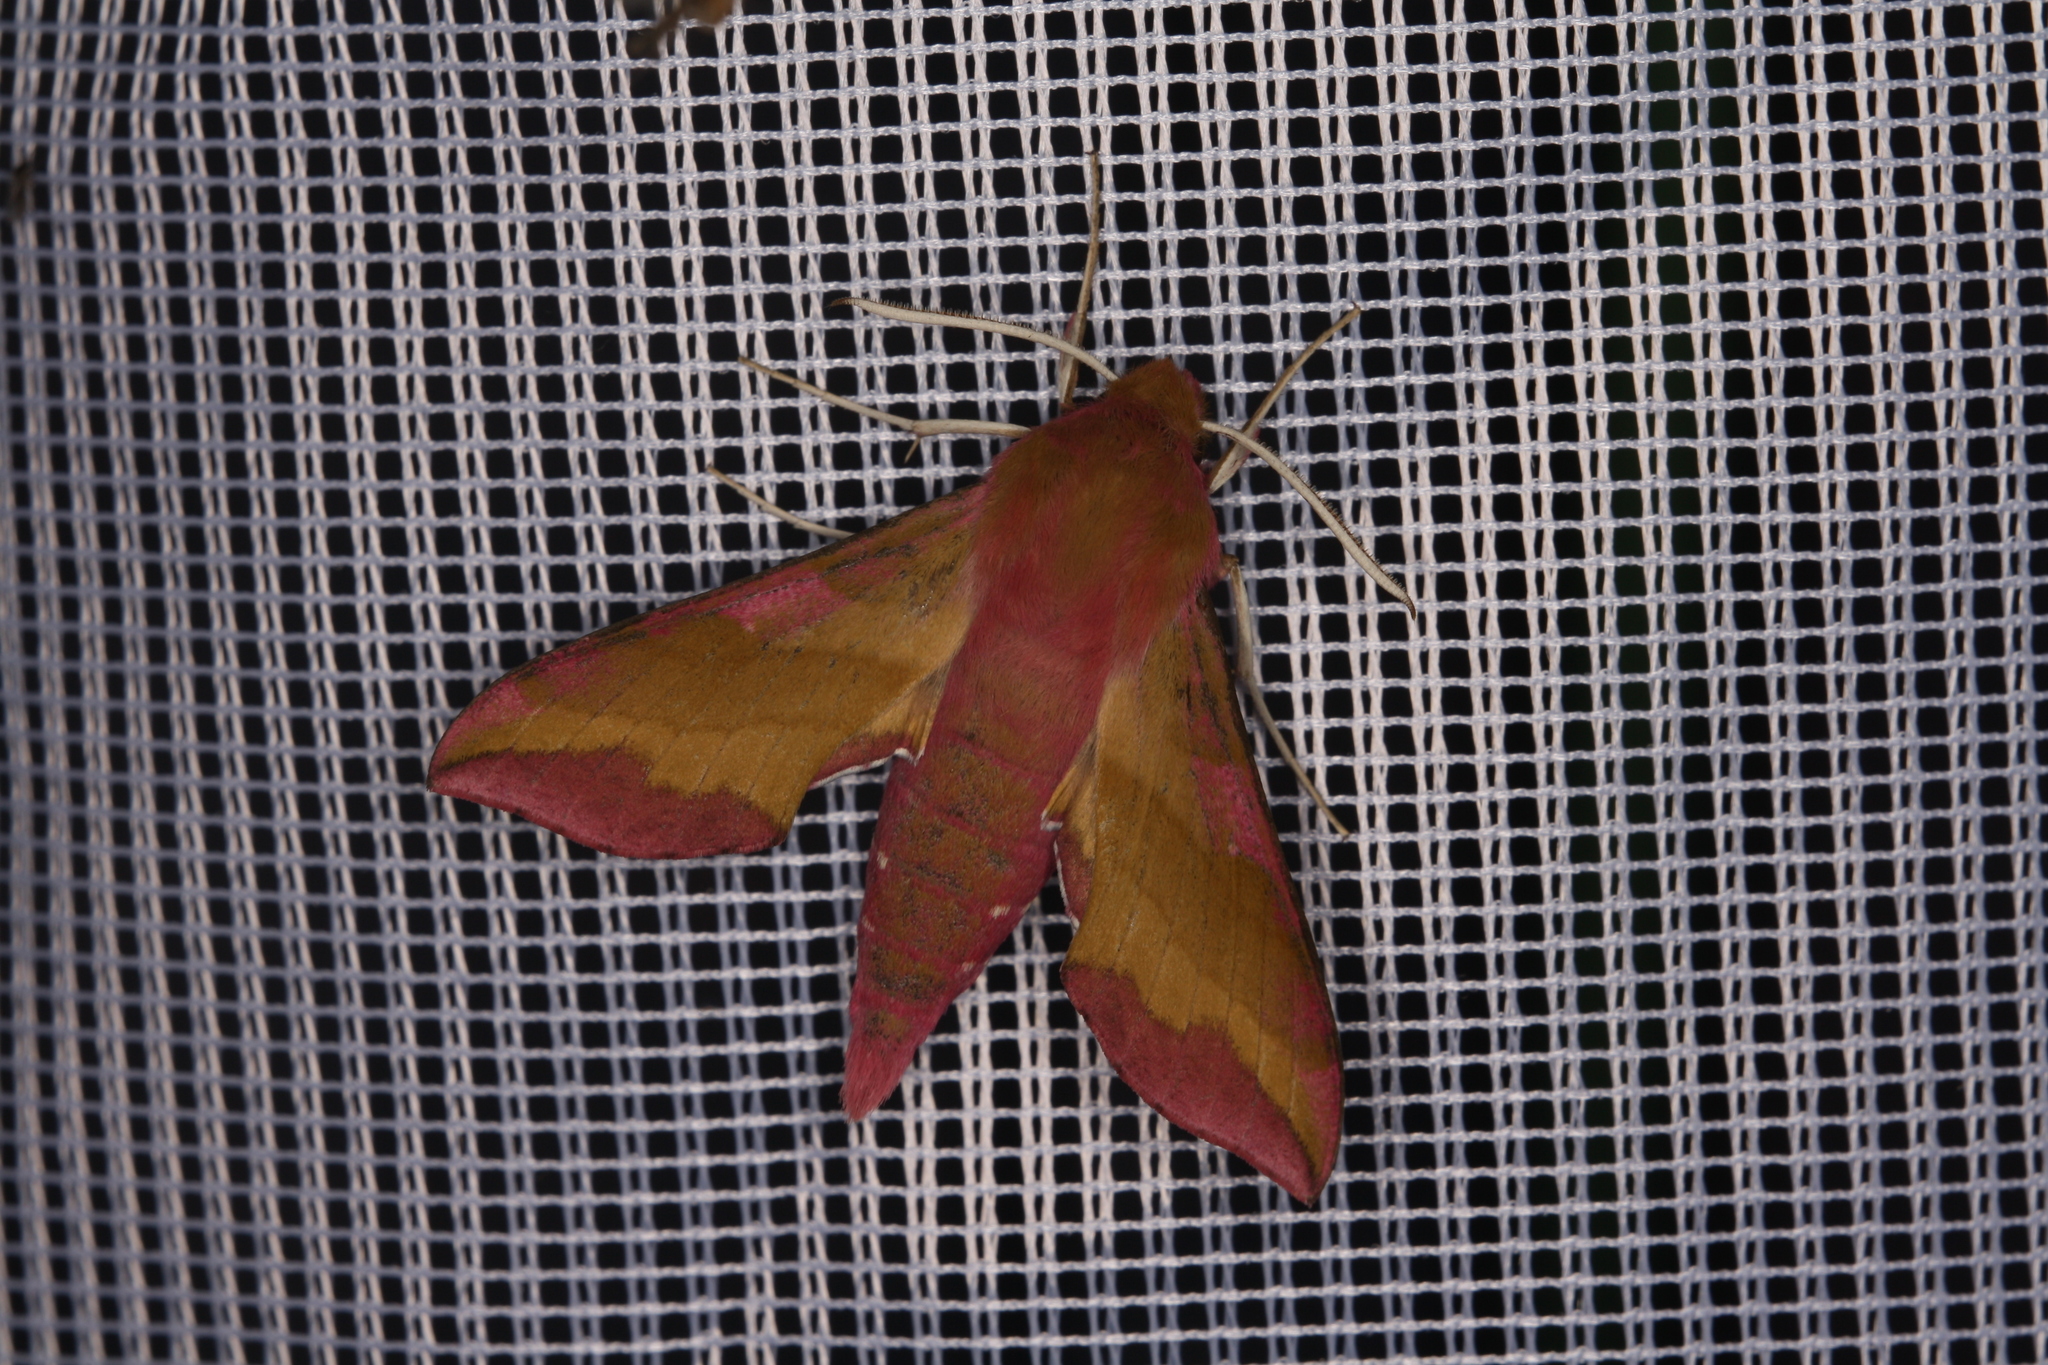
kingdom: Animalia
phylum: Arthropoda
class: Insecta
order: Lepidoptera
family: Sphingidae
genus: Deilephila
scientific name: Deilephila porcellus
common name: Small elephant hawk-moth
